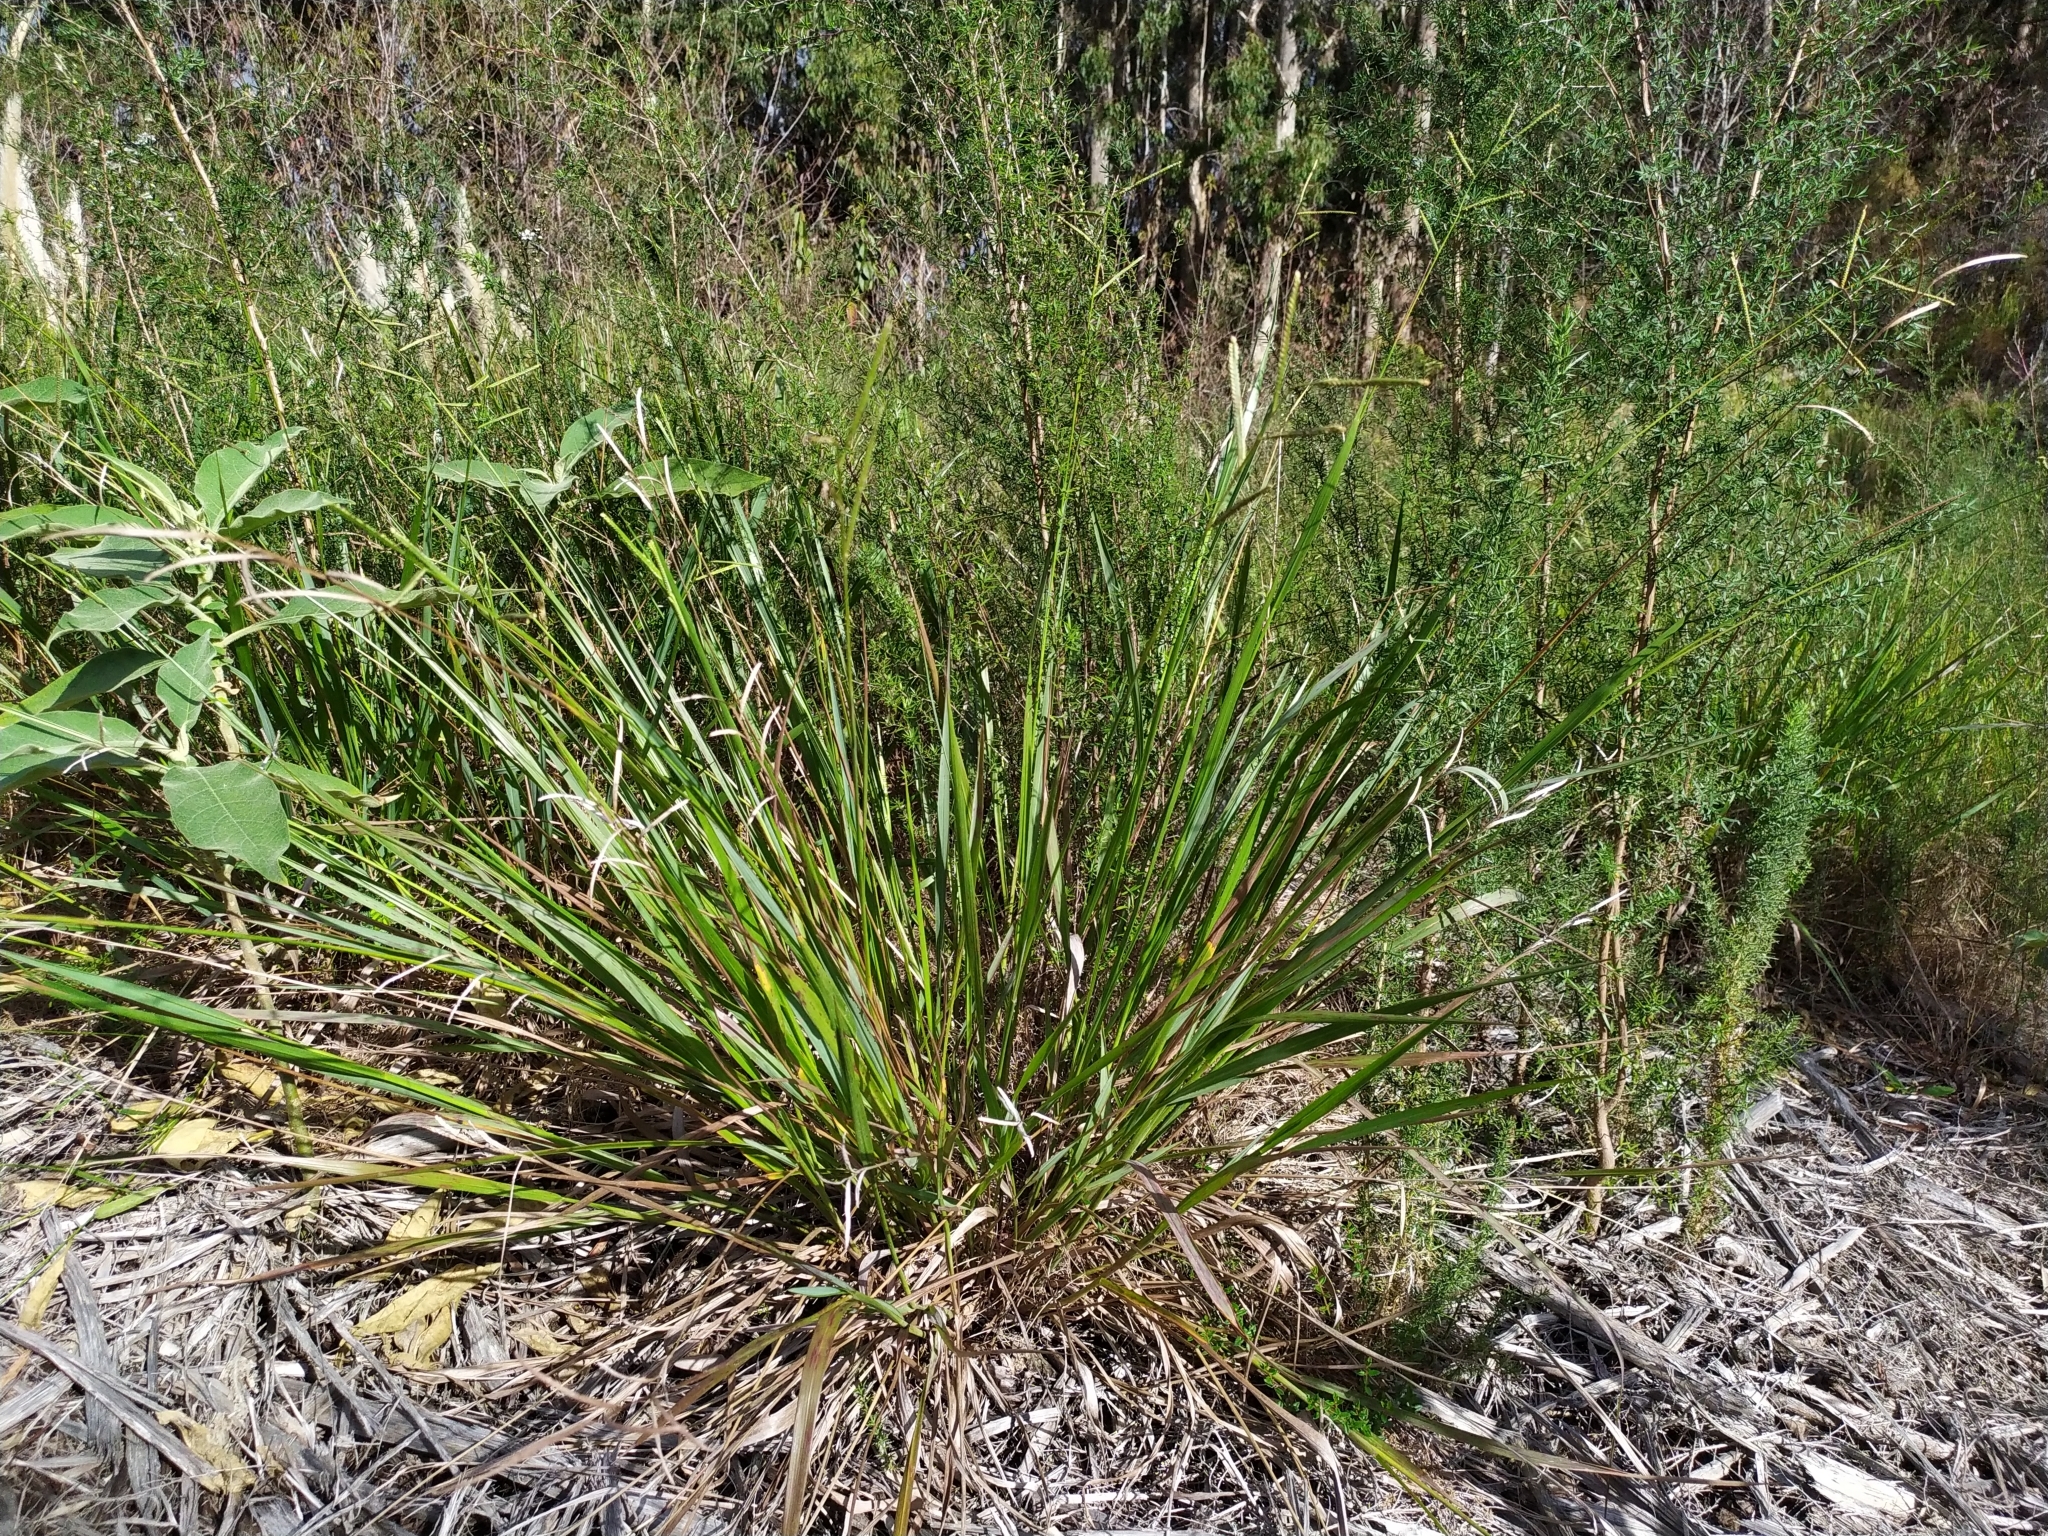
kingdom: Plantae
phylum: Tracheophyta
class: Liliopsida
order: Poales
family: Poaceae
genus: Paspalum
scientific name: Paspalum orbiculare
